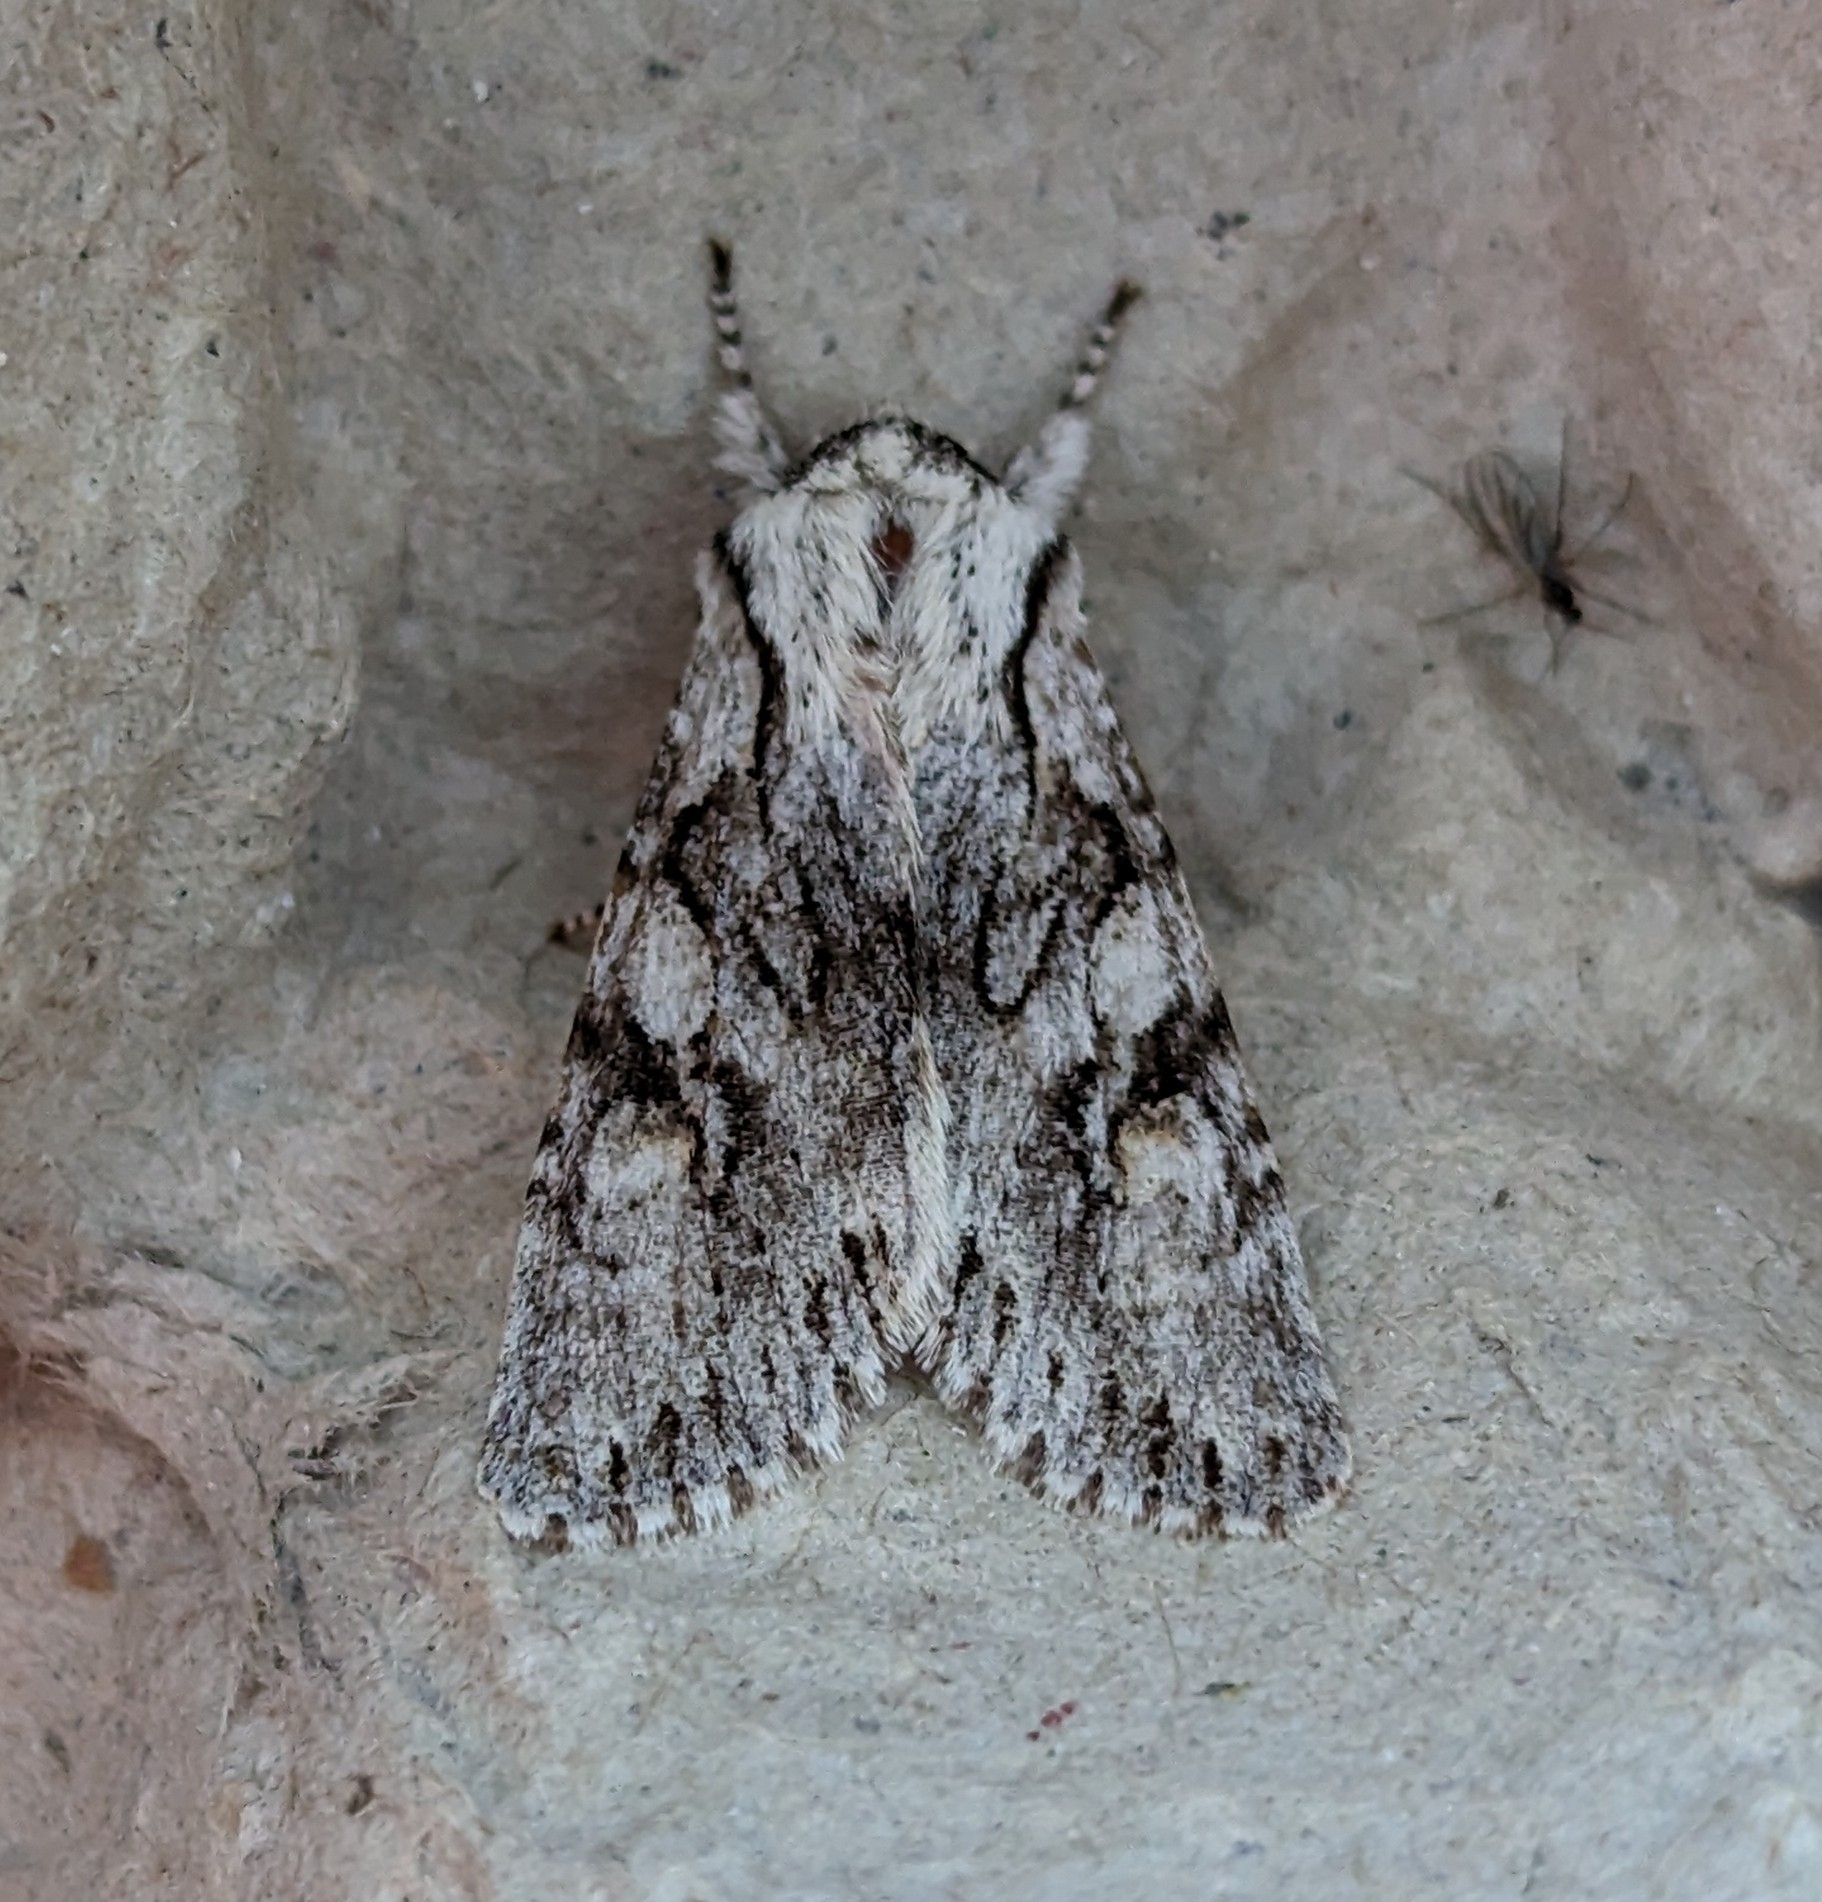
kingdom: Animalia
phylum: Arthropoda
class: Insecta
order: Lepidoptera
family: Noctuidae
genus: Egira
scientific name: Egira simplex
